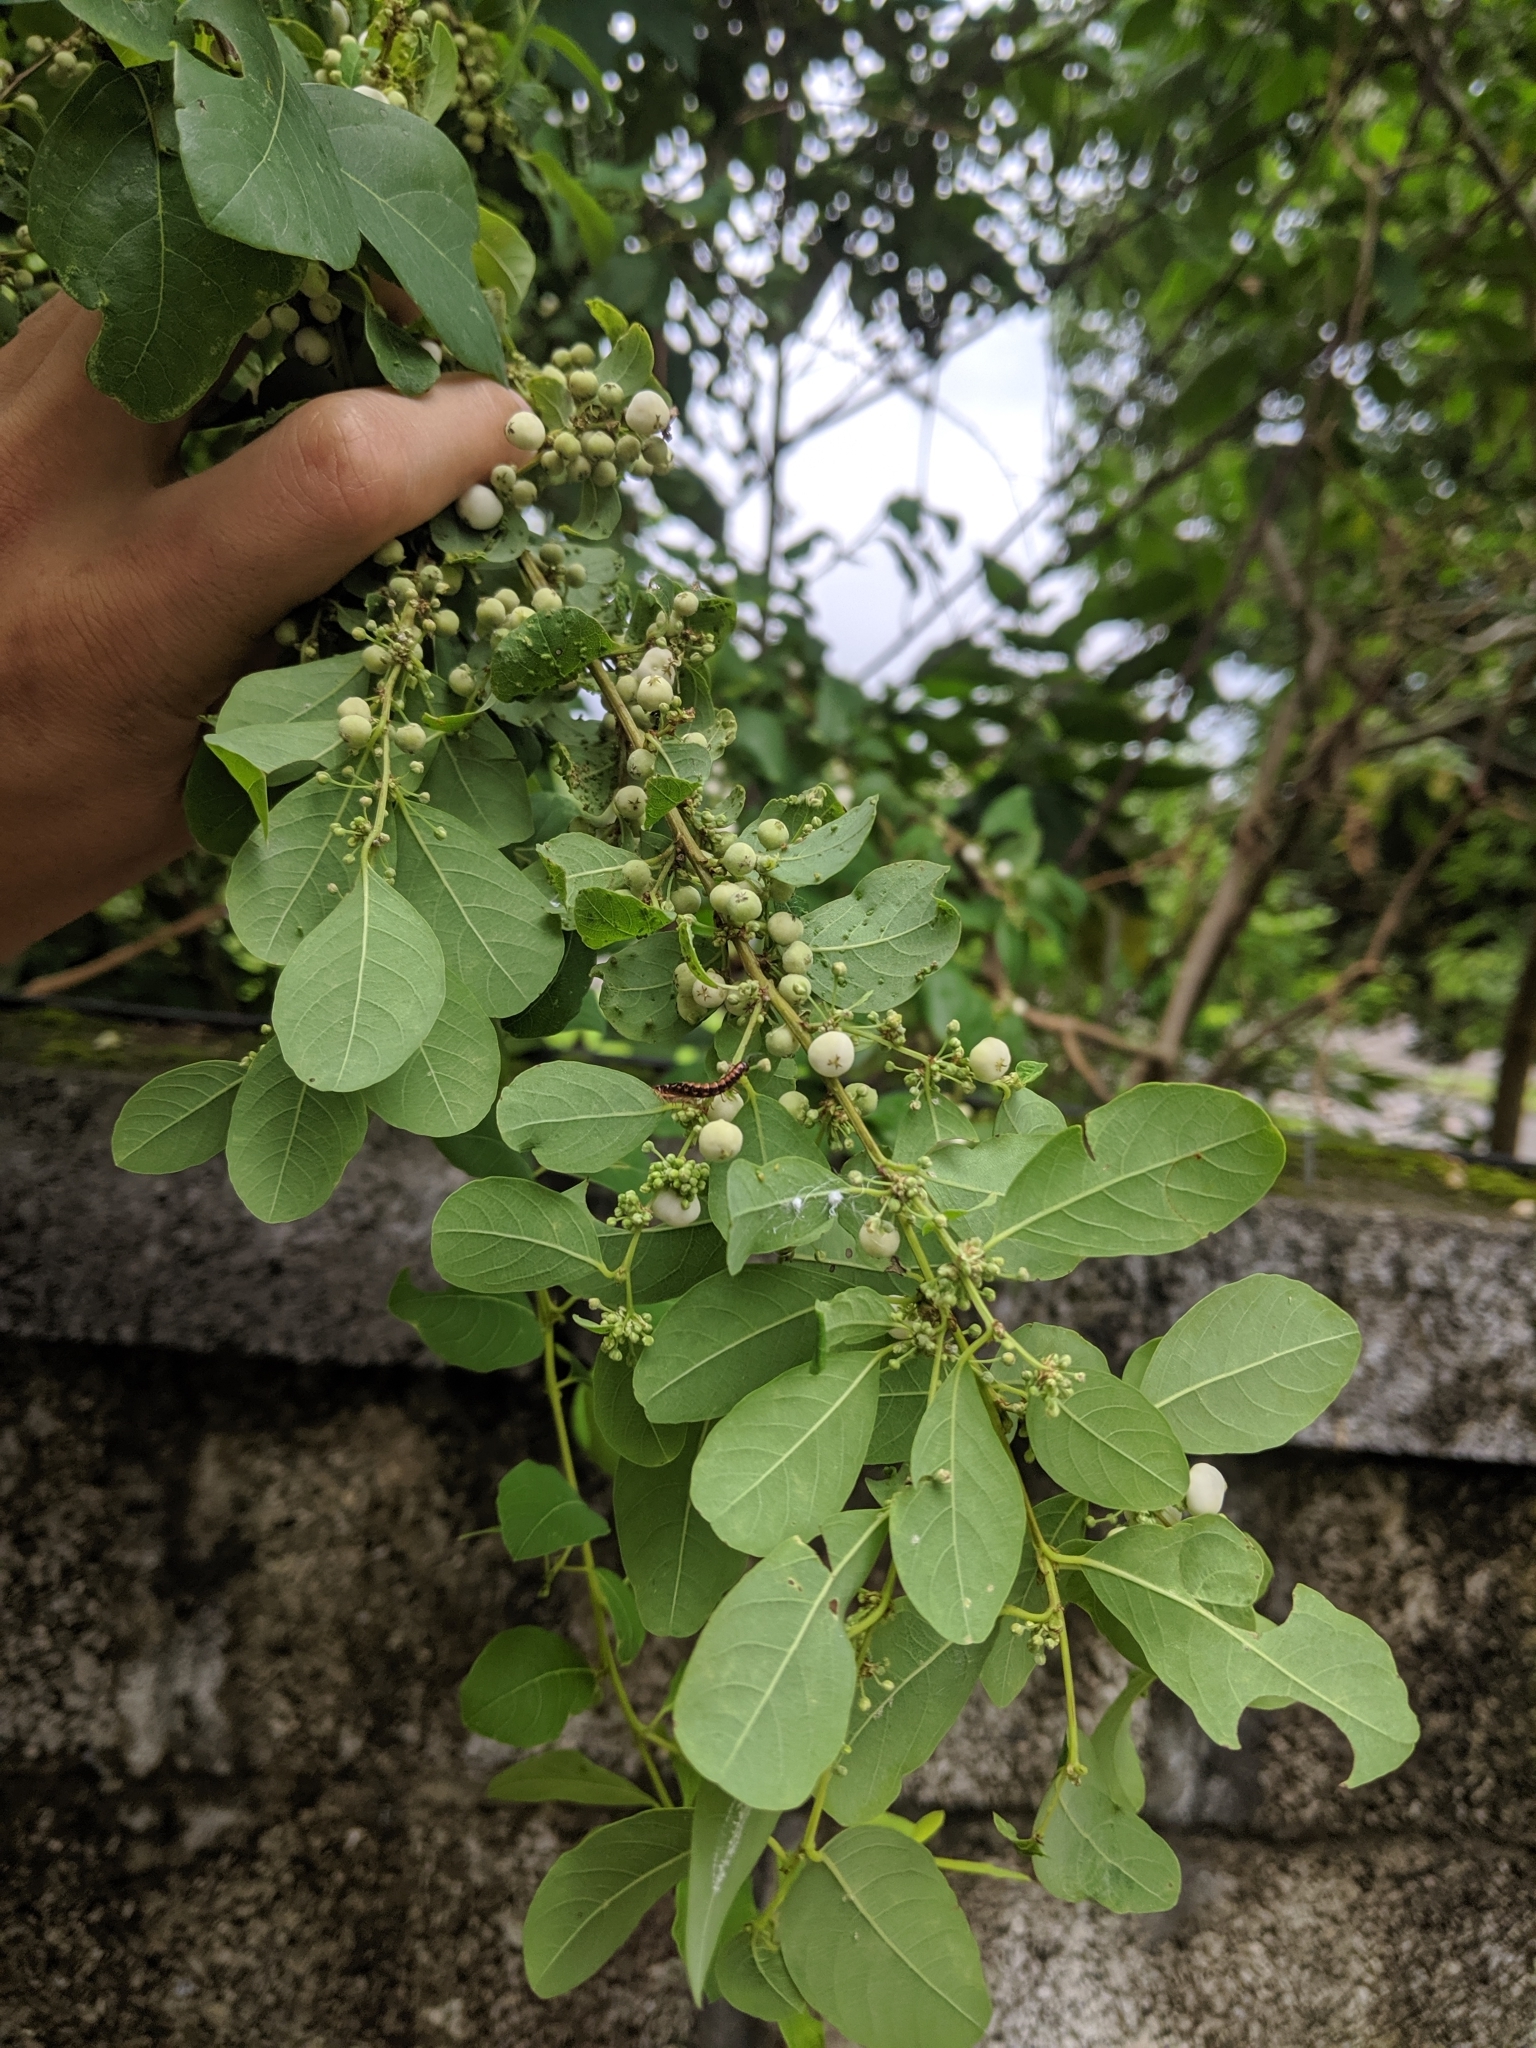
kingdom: Plantae
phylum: Tracheophyta
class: Magnoliopsida
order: Malpighiales
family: Phyllanthaceae
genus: Flueggea
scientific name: Flueggea virosa
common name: Common bushweed
